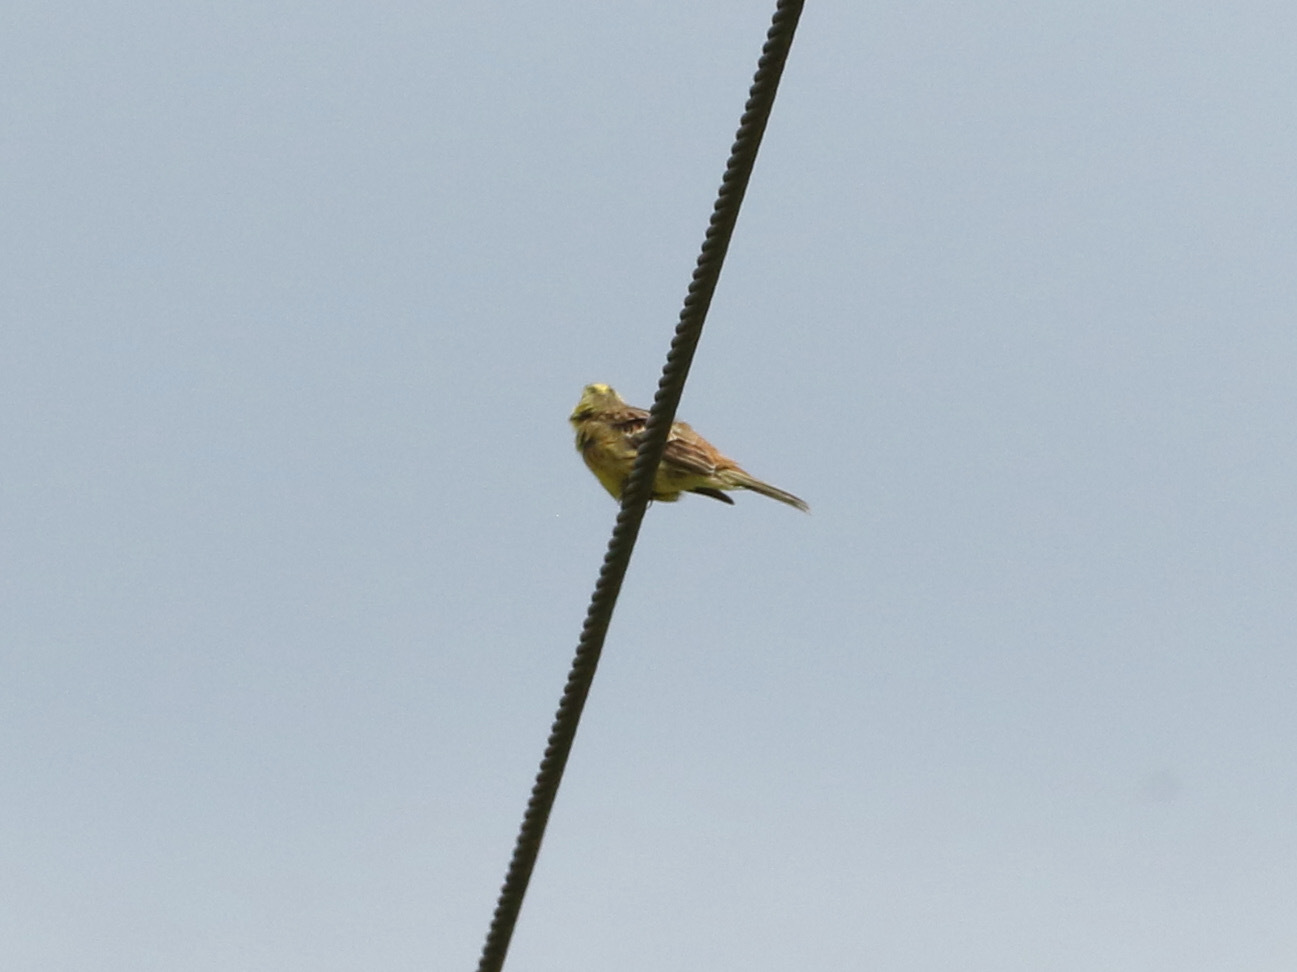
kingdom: Animalia
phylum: Chordata
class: Aves
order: Passeriformes
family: Emberizidae
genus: Emberiza
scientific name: Emberiza citrinella
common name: Yellowhammer
